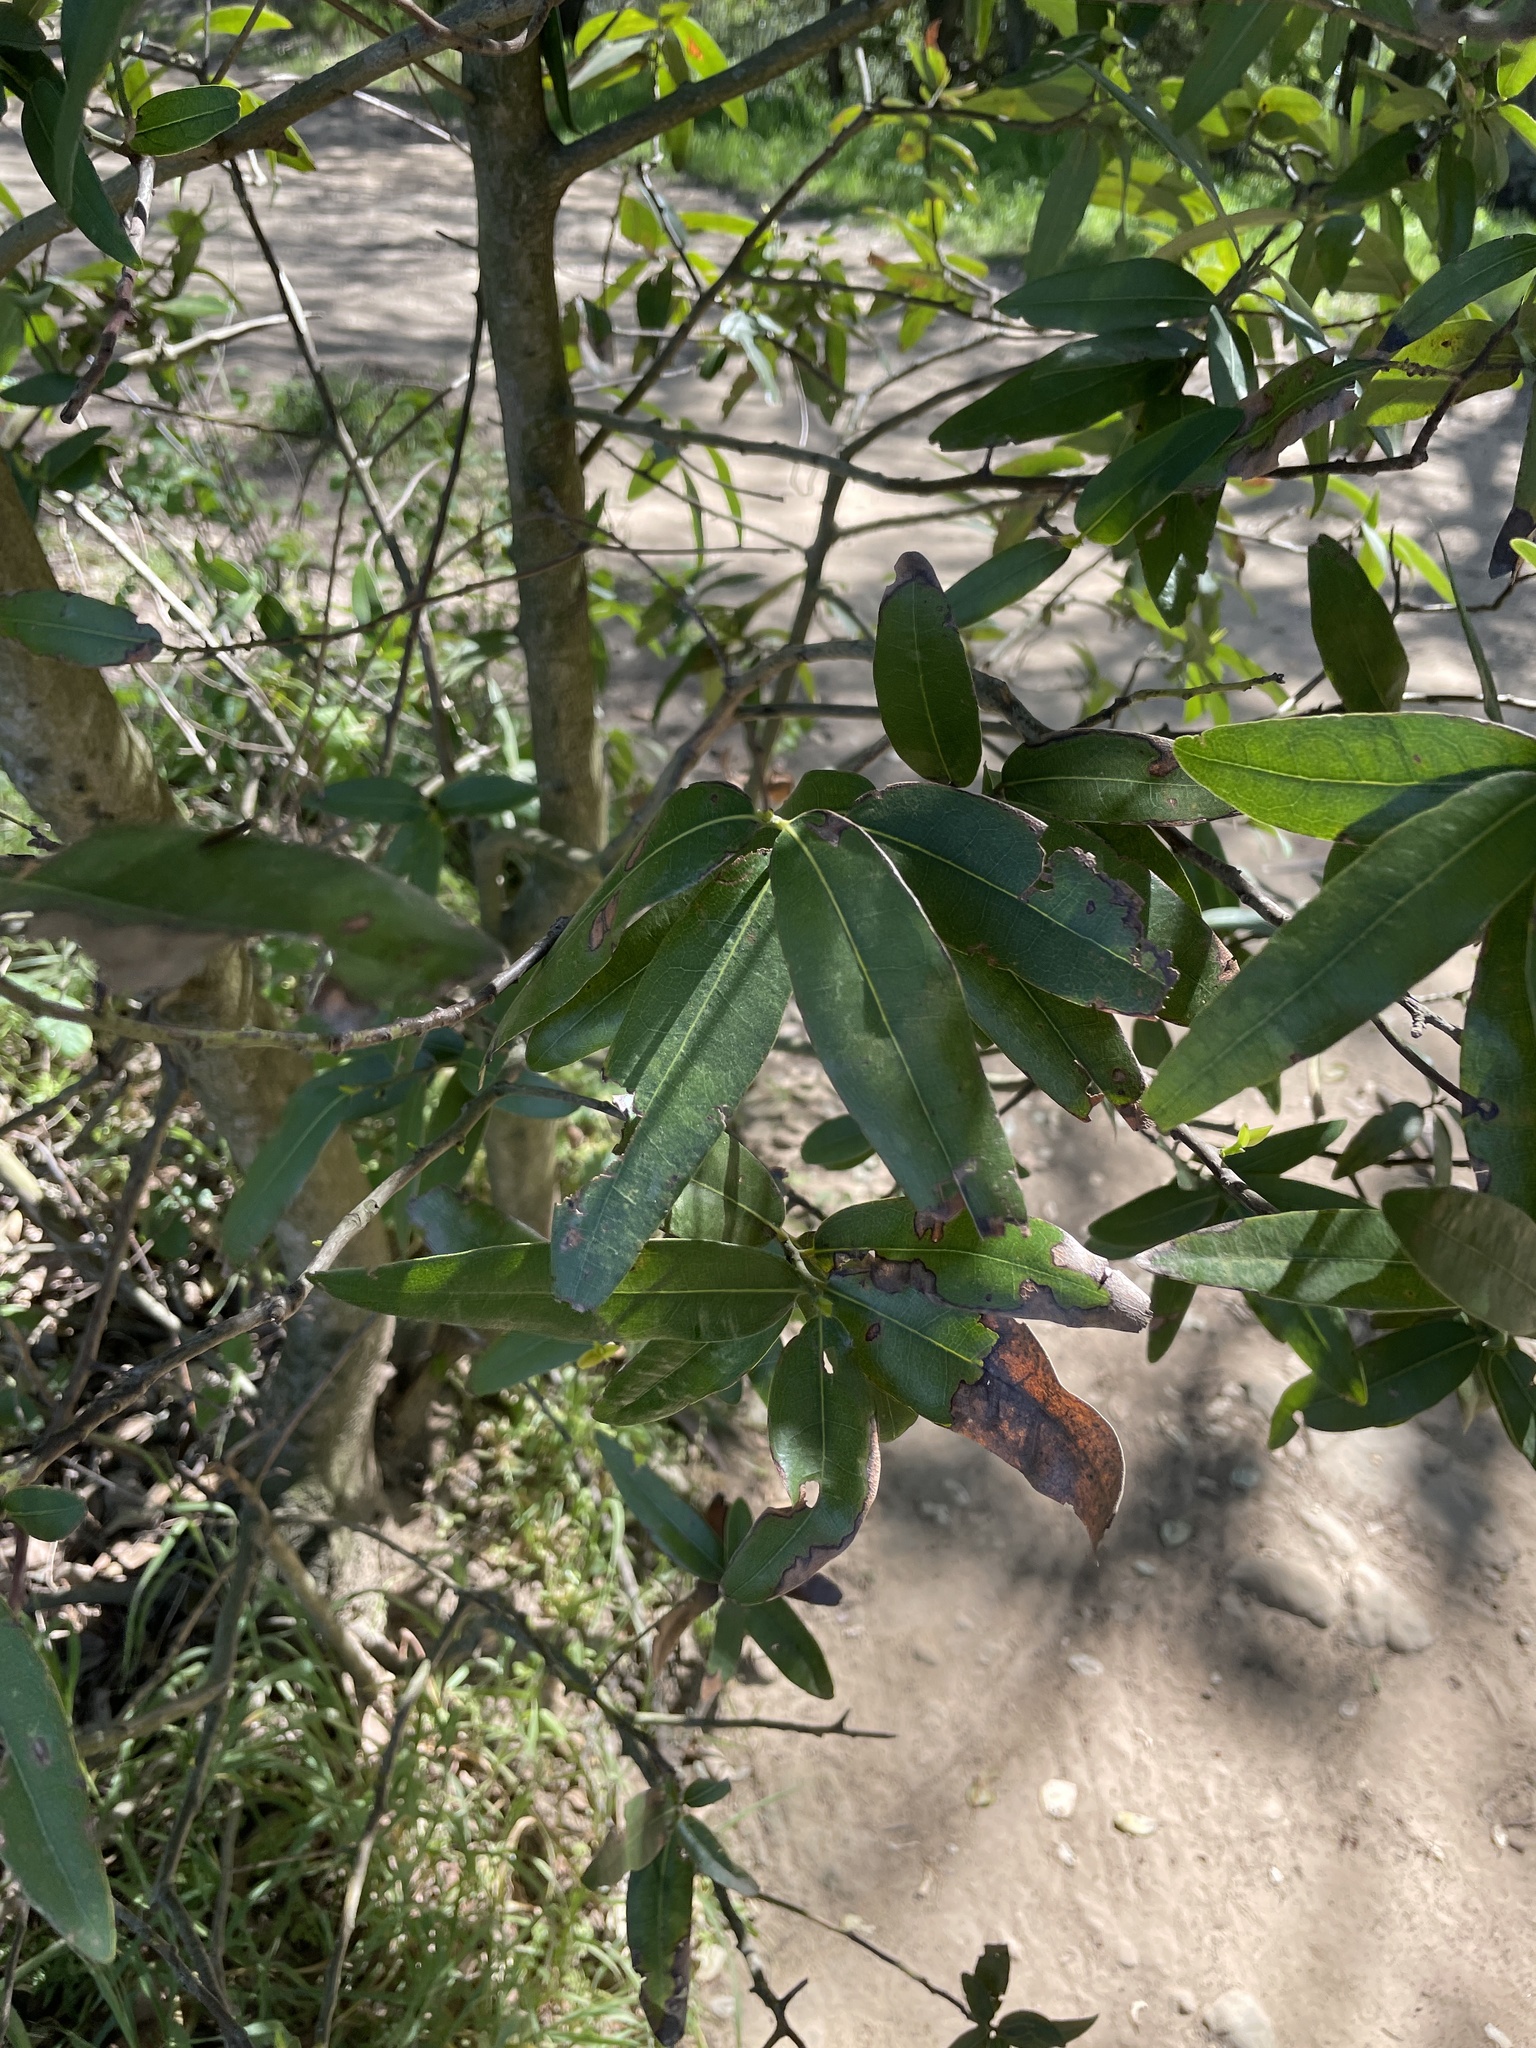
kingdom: Plantae
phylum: Tracheophyta
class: Magnoliopsida
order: Laurales
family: Lauraceae
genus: Umbellularia
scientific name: Umbellularia californica
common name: California bay
